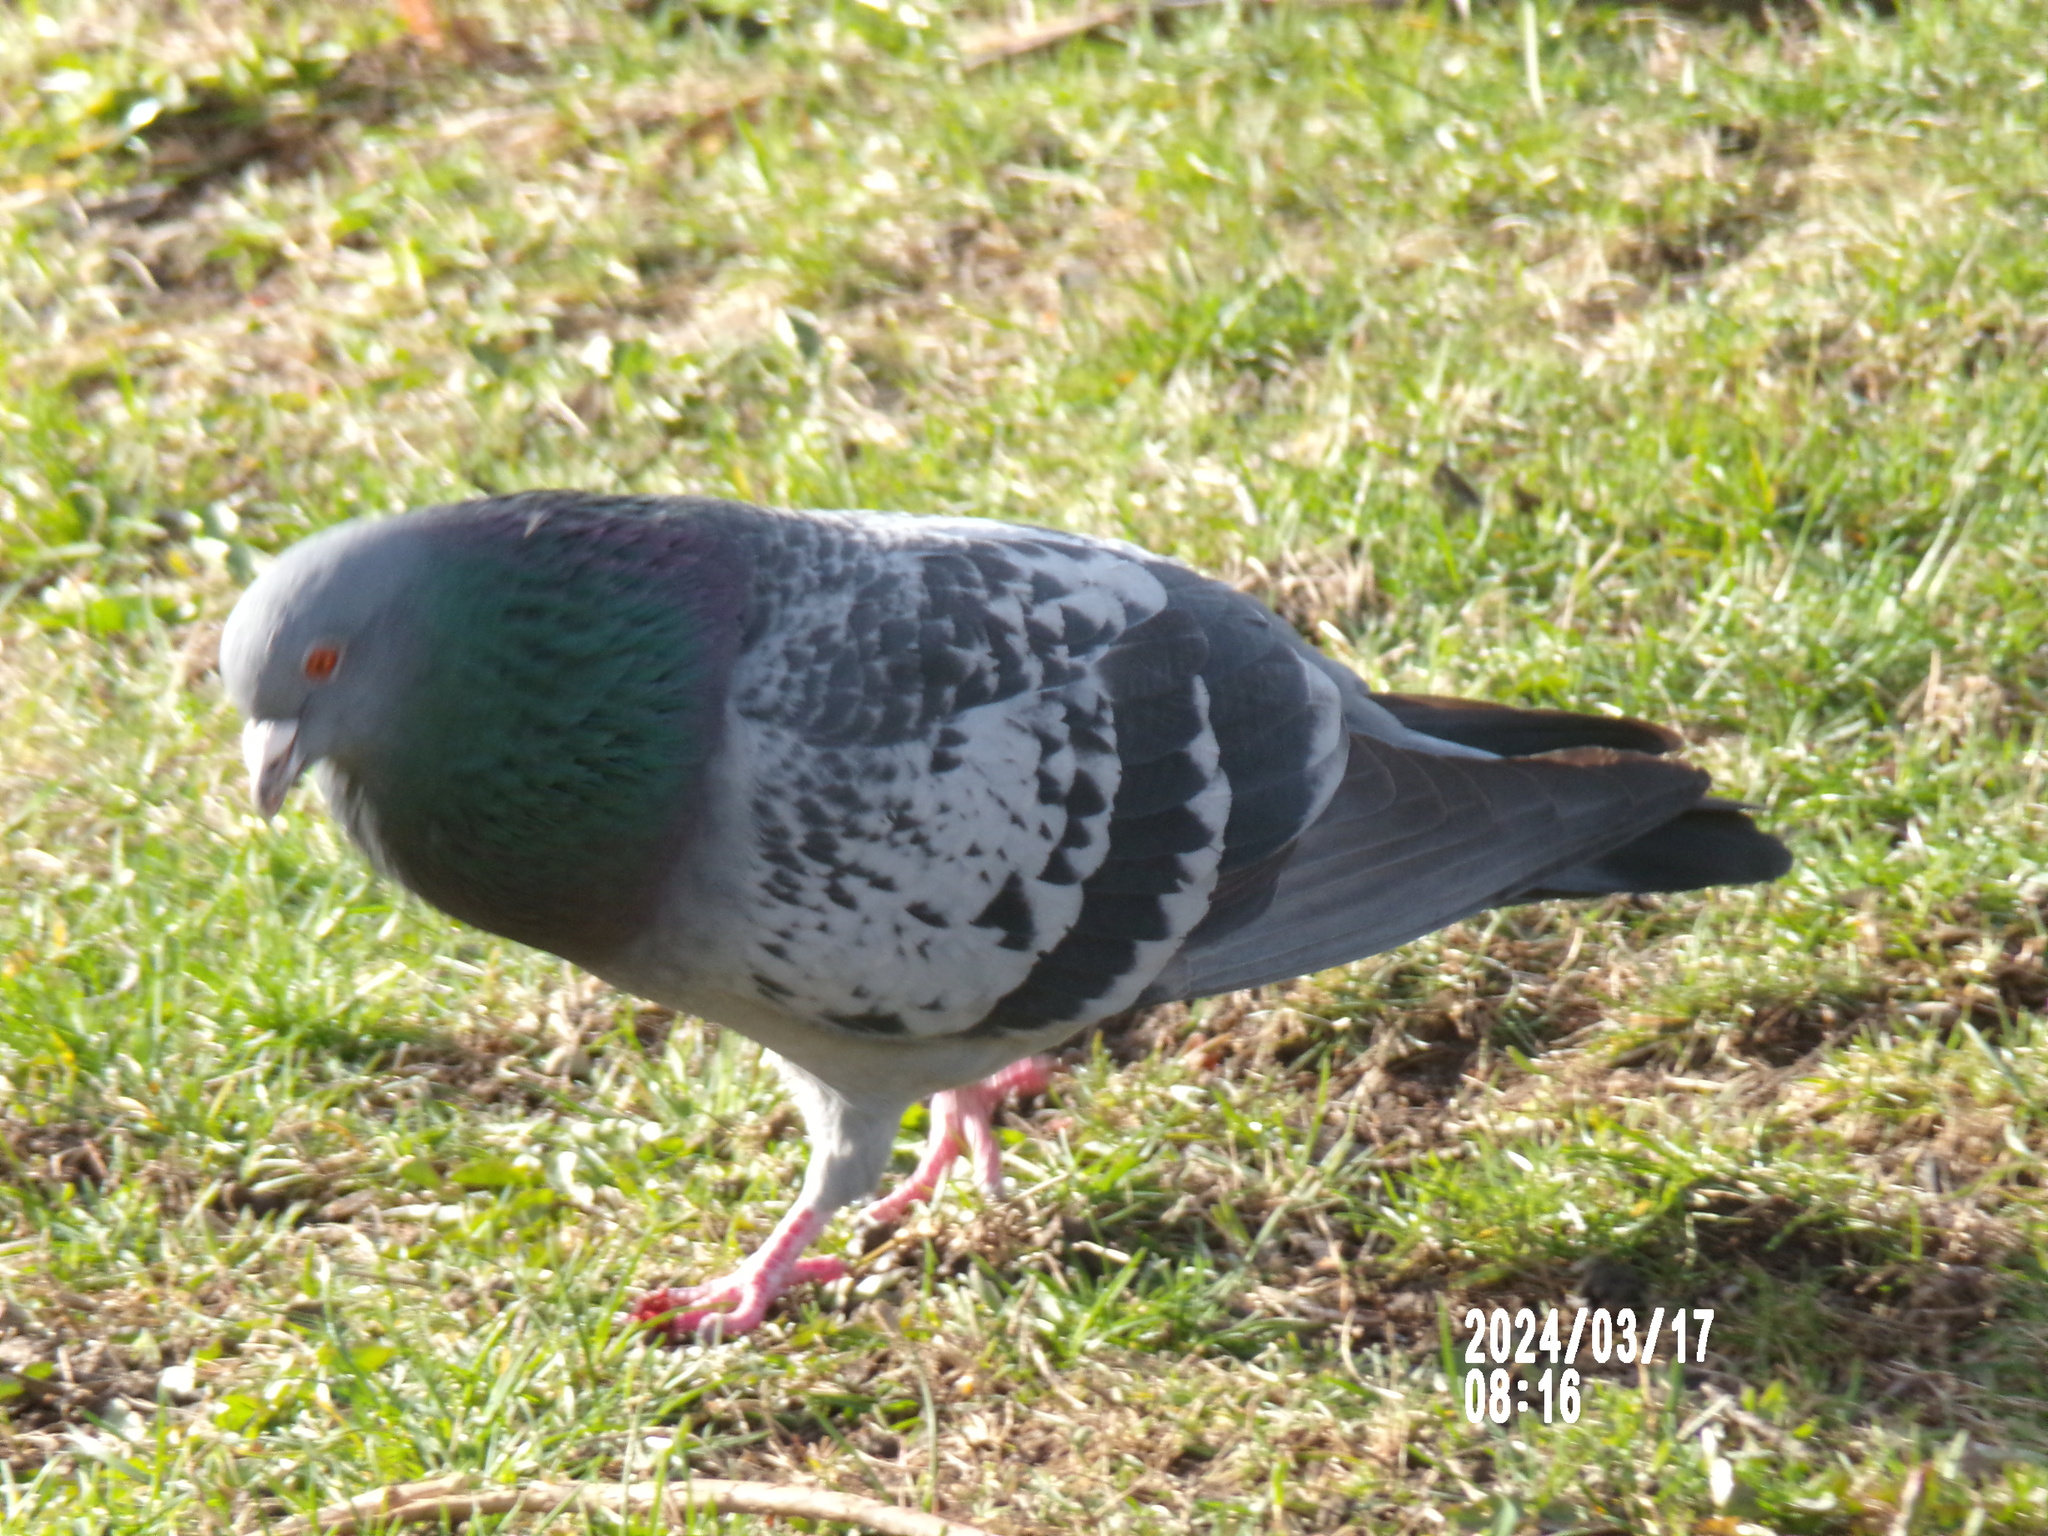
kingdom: Animalia
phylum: Chordata
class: Aves
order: Columbiformes
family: Columbidae
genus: Columba
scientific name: Columba livia
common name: Rock pigeon
